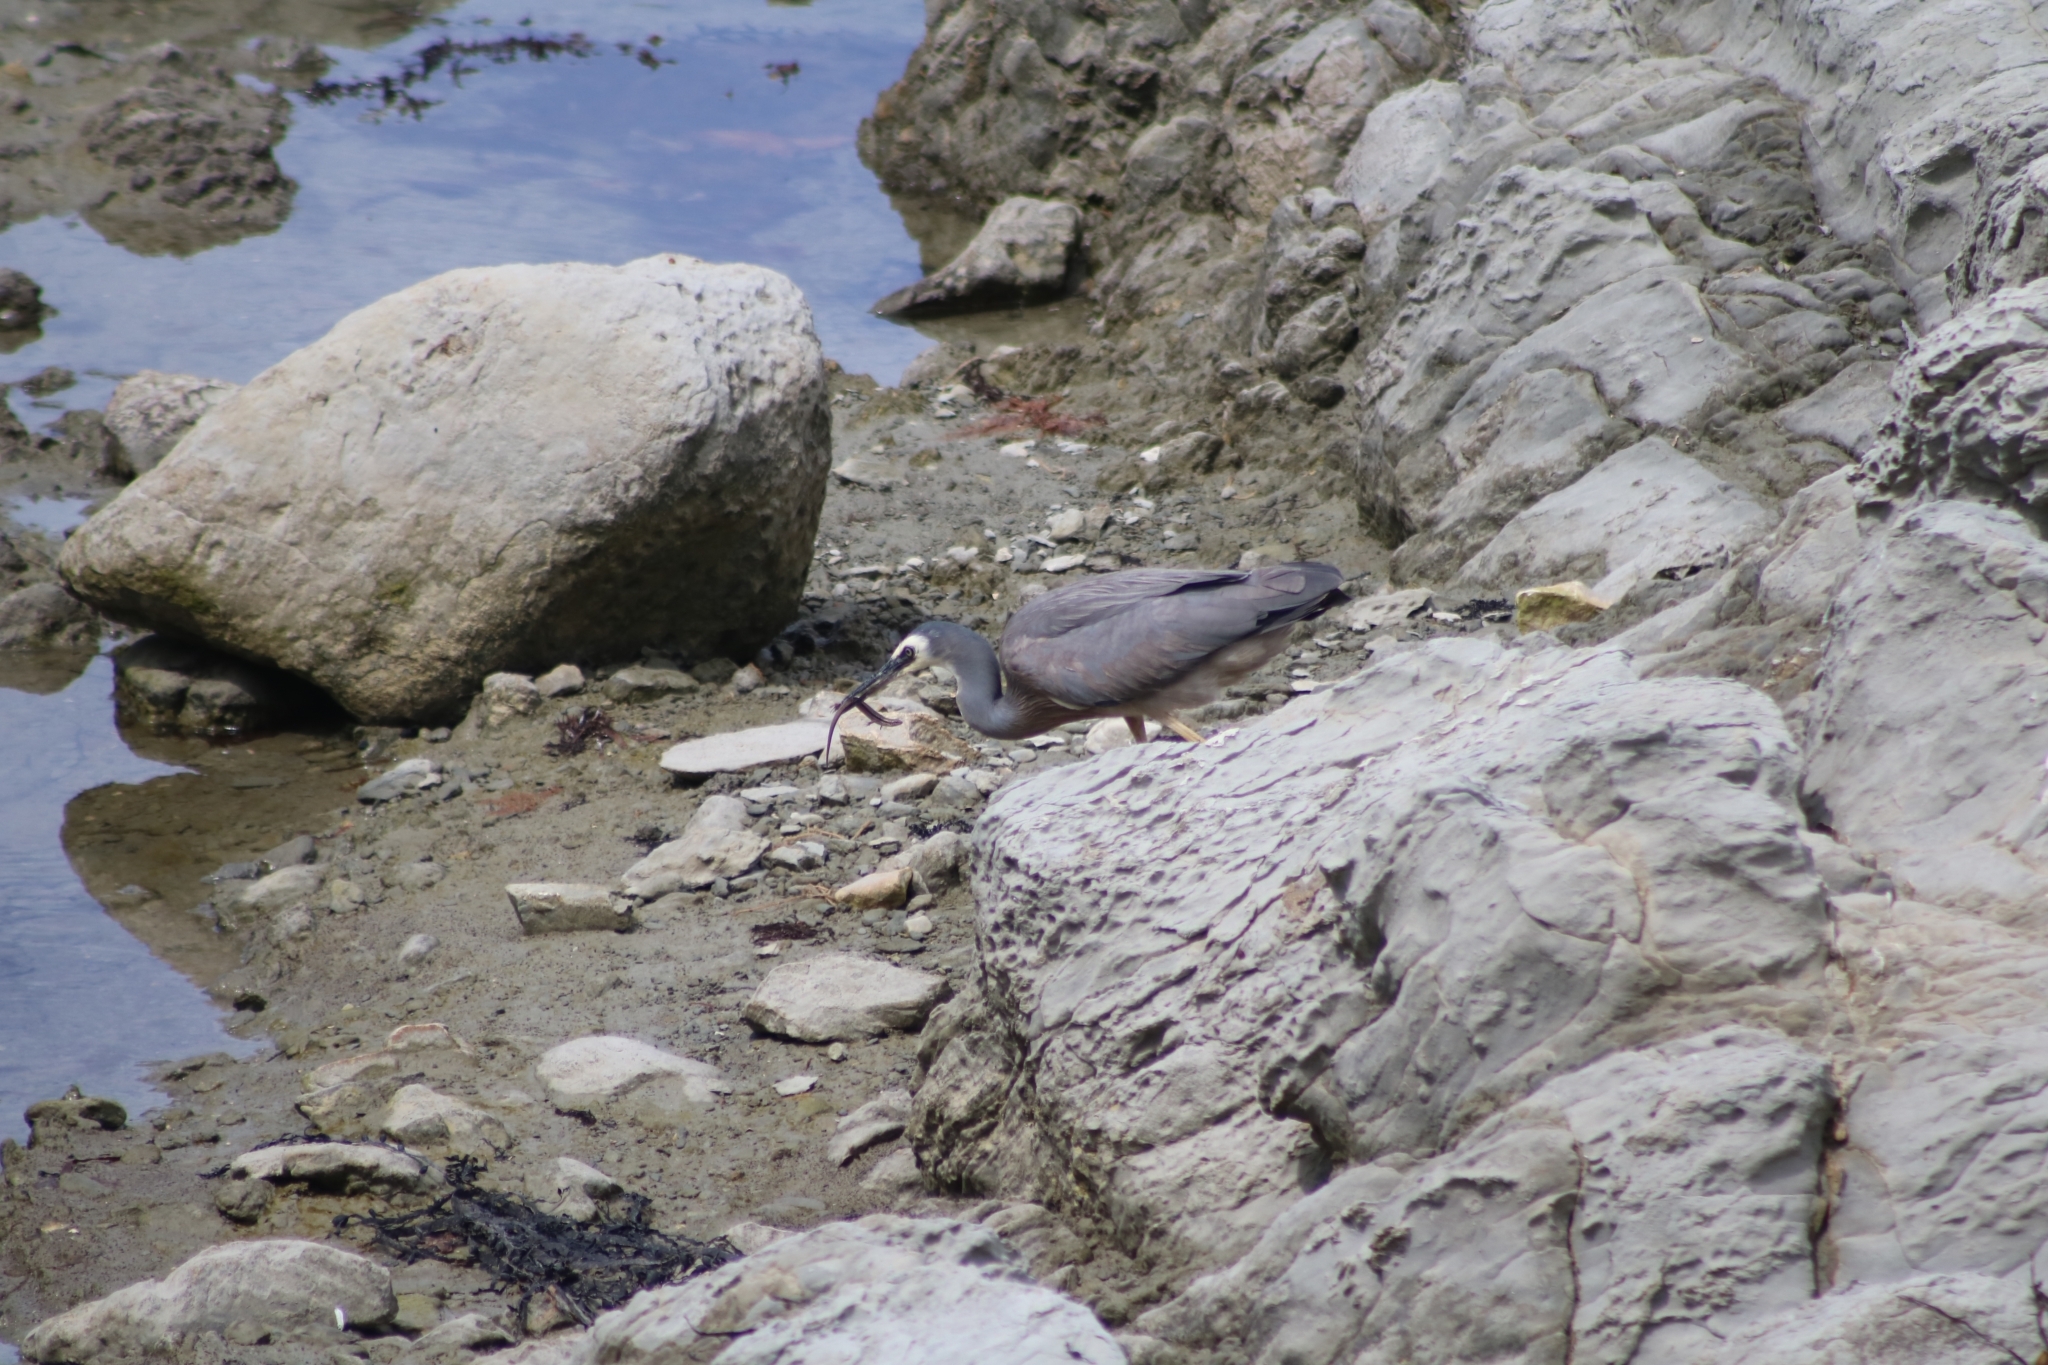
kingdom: Animalia
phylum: Chordata
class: Squamata
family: Scincidae
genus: Oligosoma
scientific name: Oligosoma polychroma
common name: Common new zealand skink
